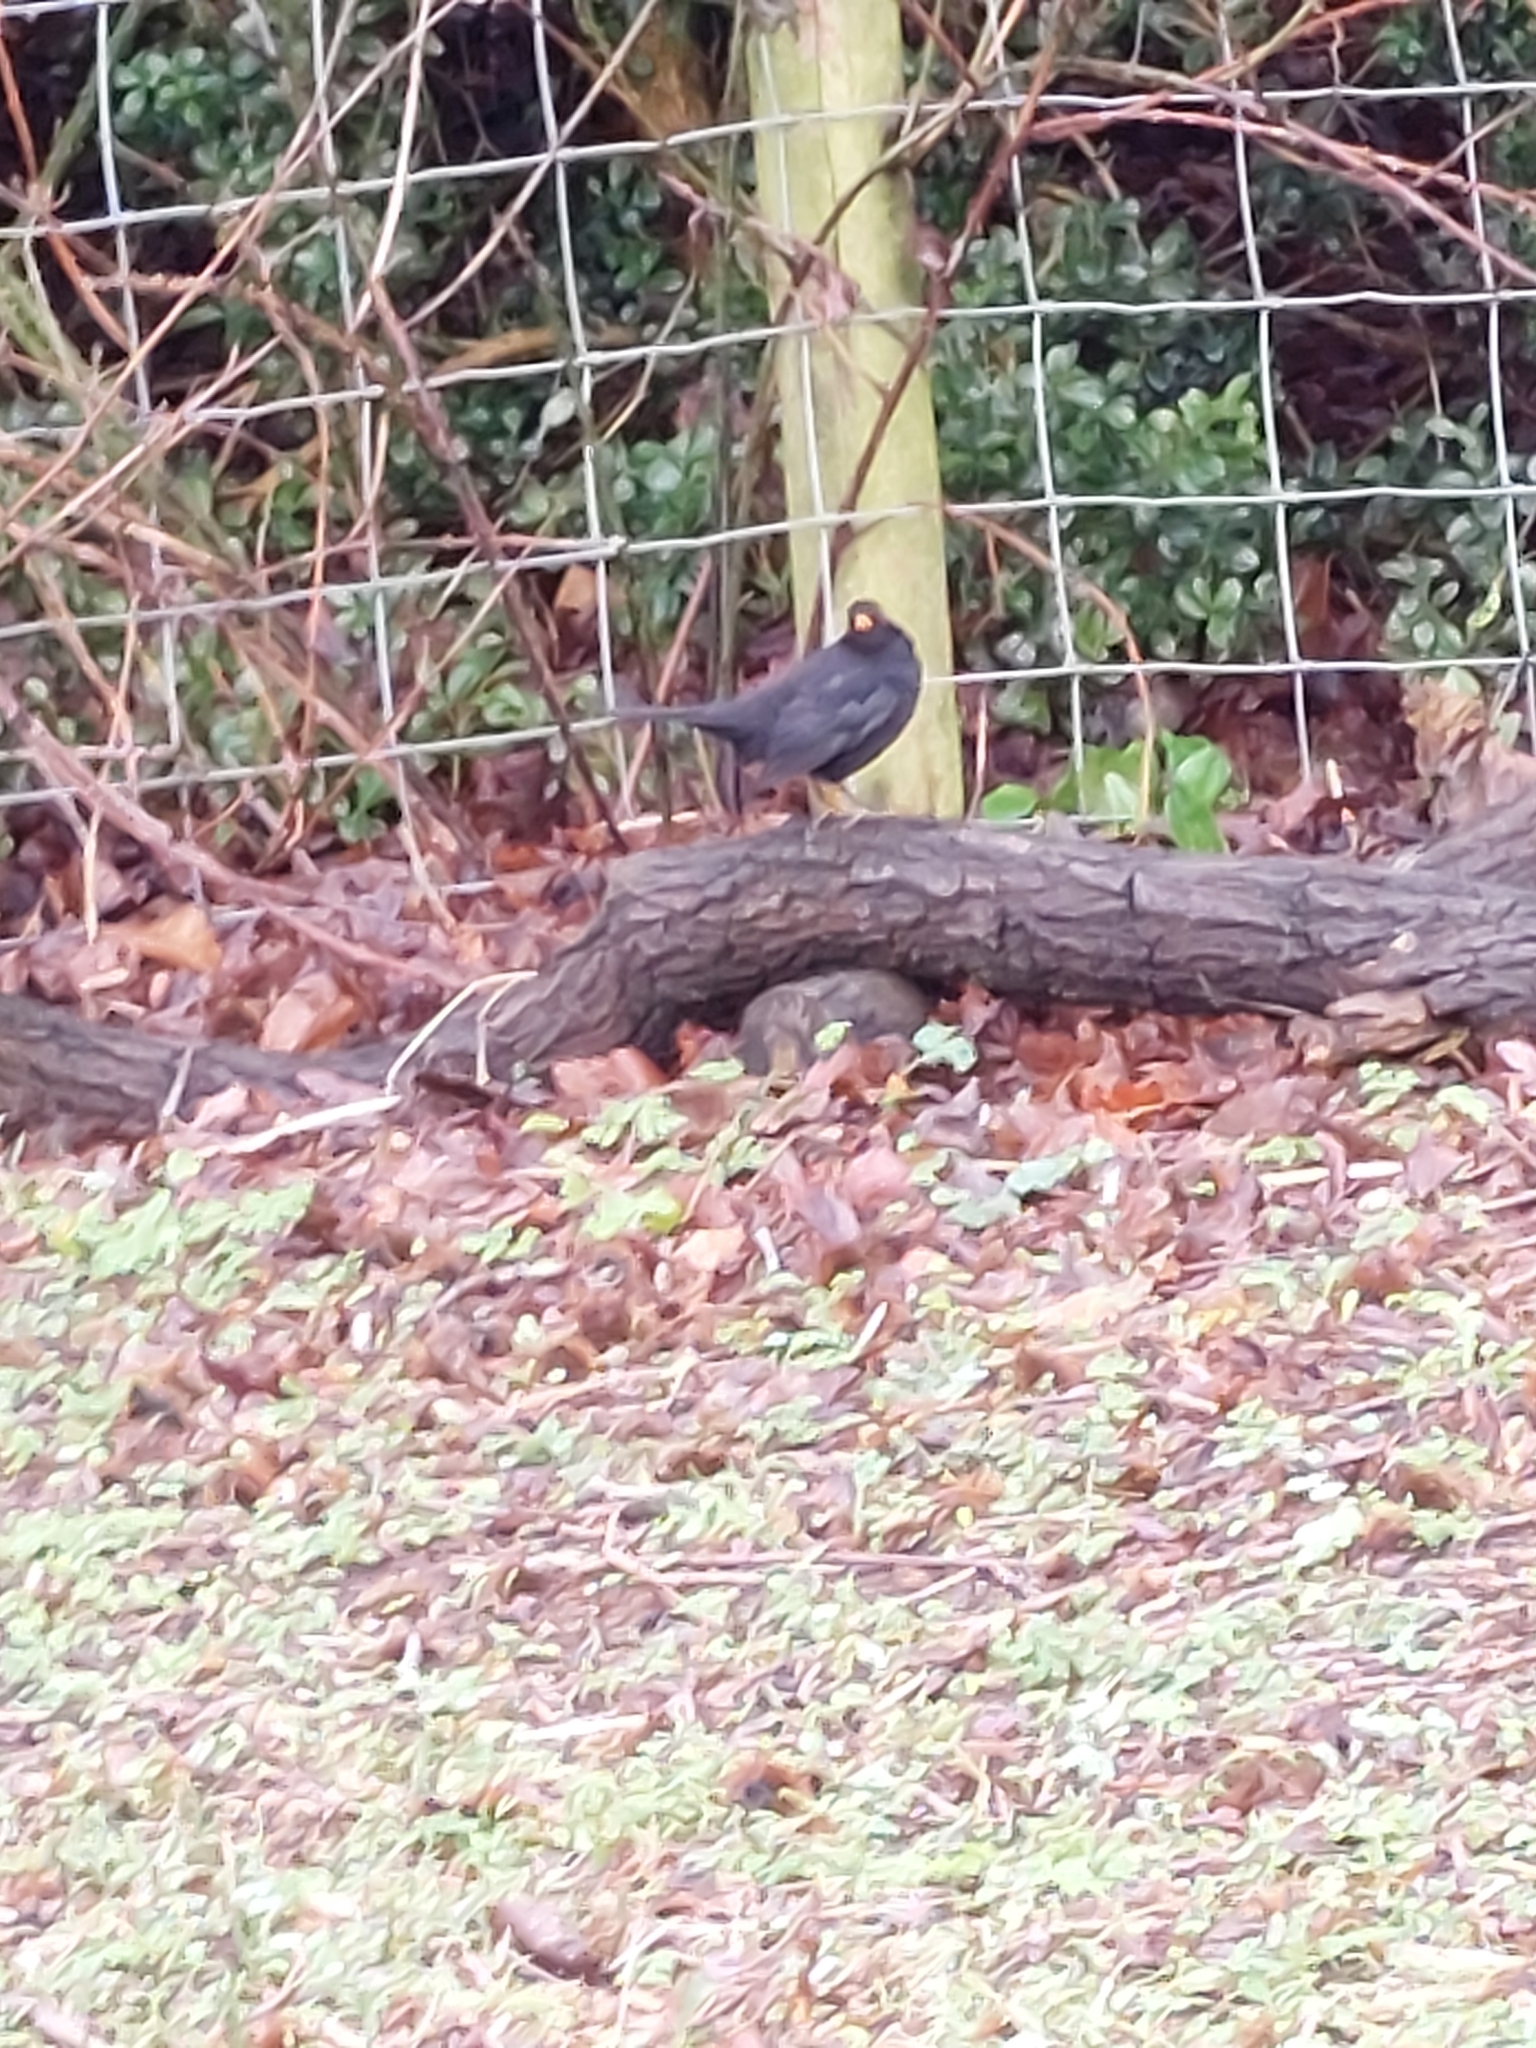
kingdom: Animalia
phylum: Chordata
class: Aves
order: Passeriformes
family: Turdidae
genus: Turdus
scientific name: Turdus merula
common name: Common blackbird
